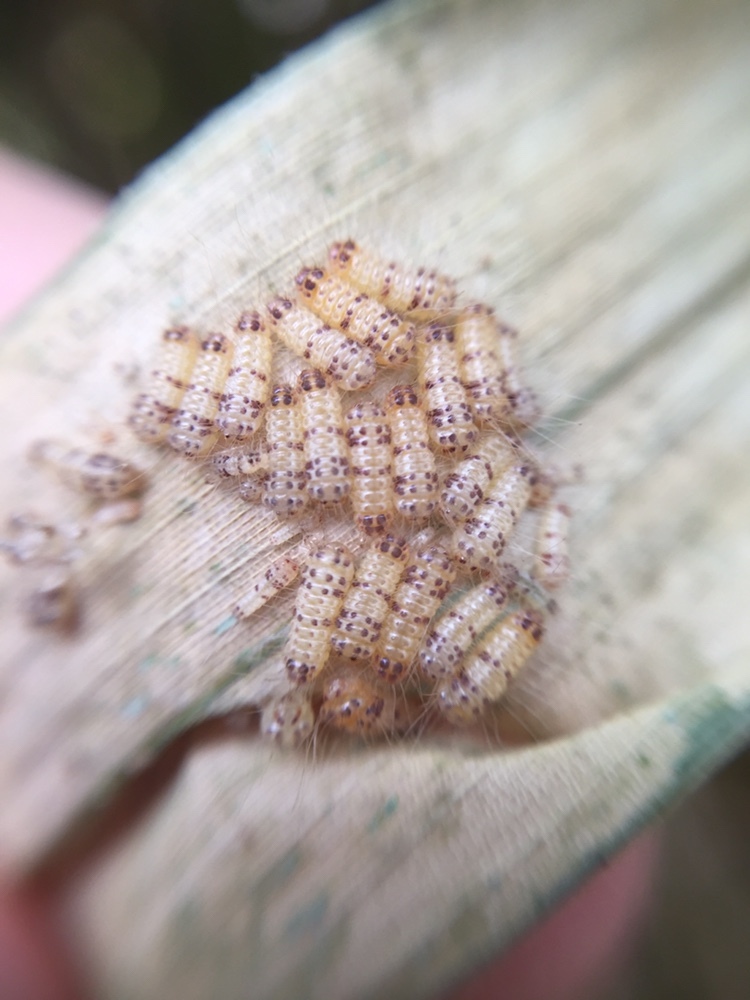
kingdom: Animalia
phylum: Arthropoda
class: Insecta
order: Lepidoptera
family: Zygaenidae
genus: Artona
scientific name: Artona martini
